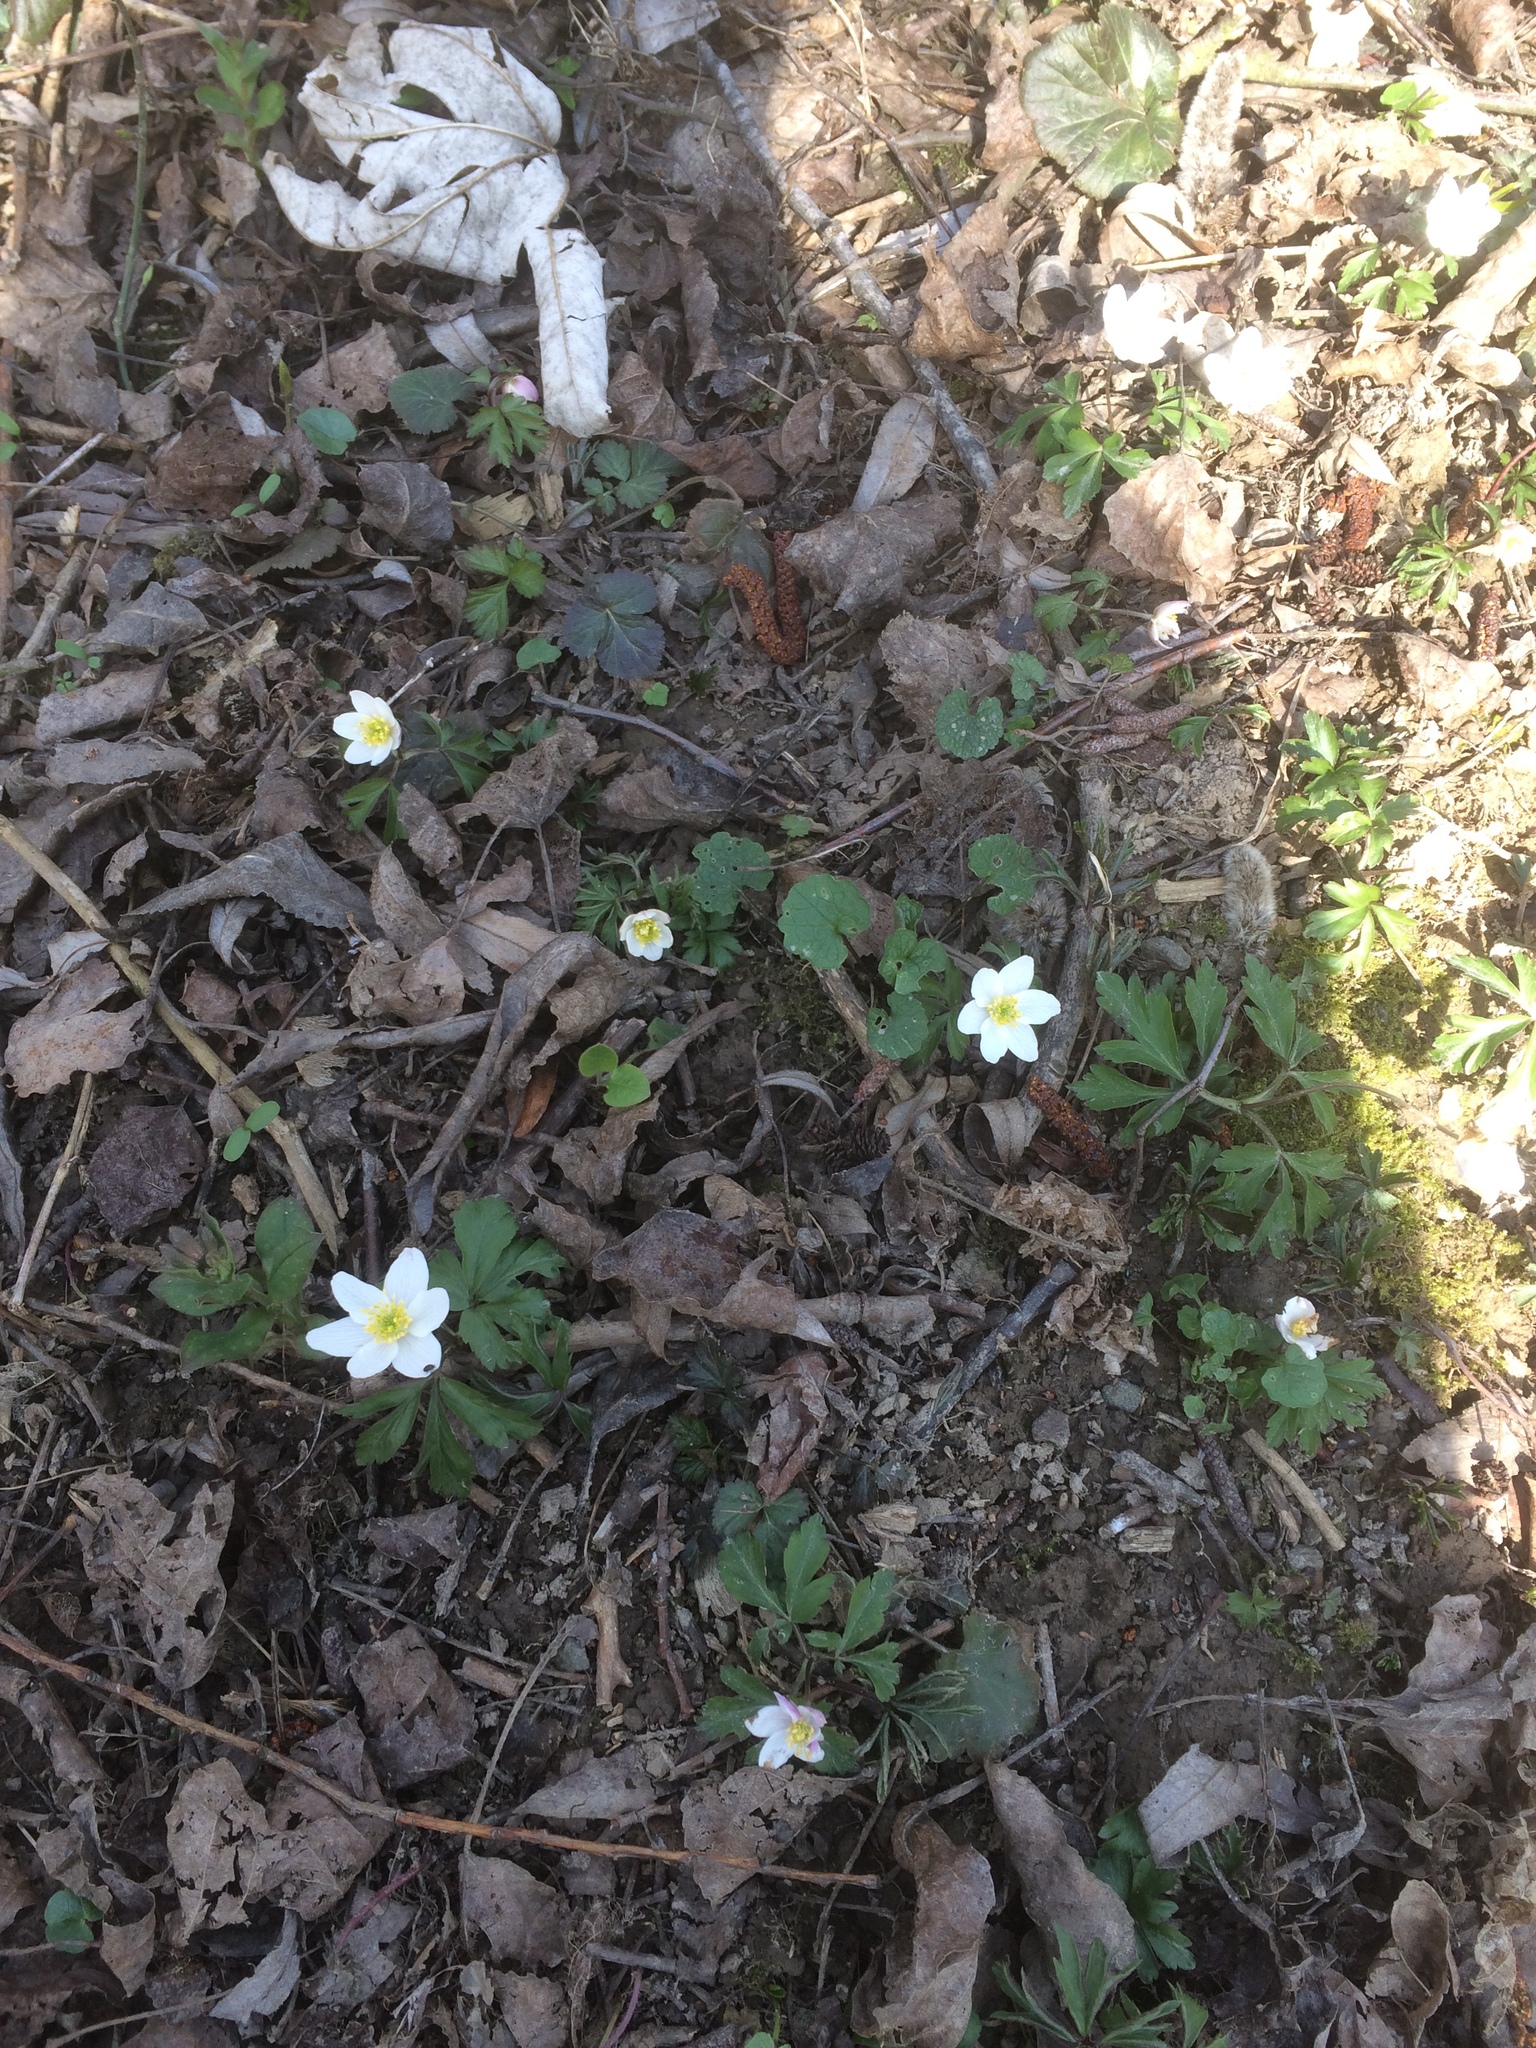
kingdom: Plantae
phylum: Tracheophyta
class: Magnoliopsida
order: Ranunculales
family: Ranunculaceae
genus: Anemone
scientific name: Anemone nemorosa
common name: Wood anemone
